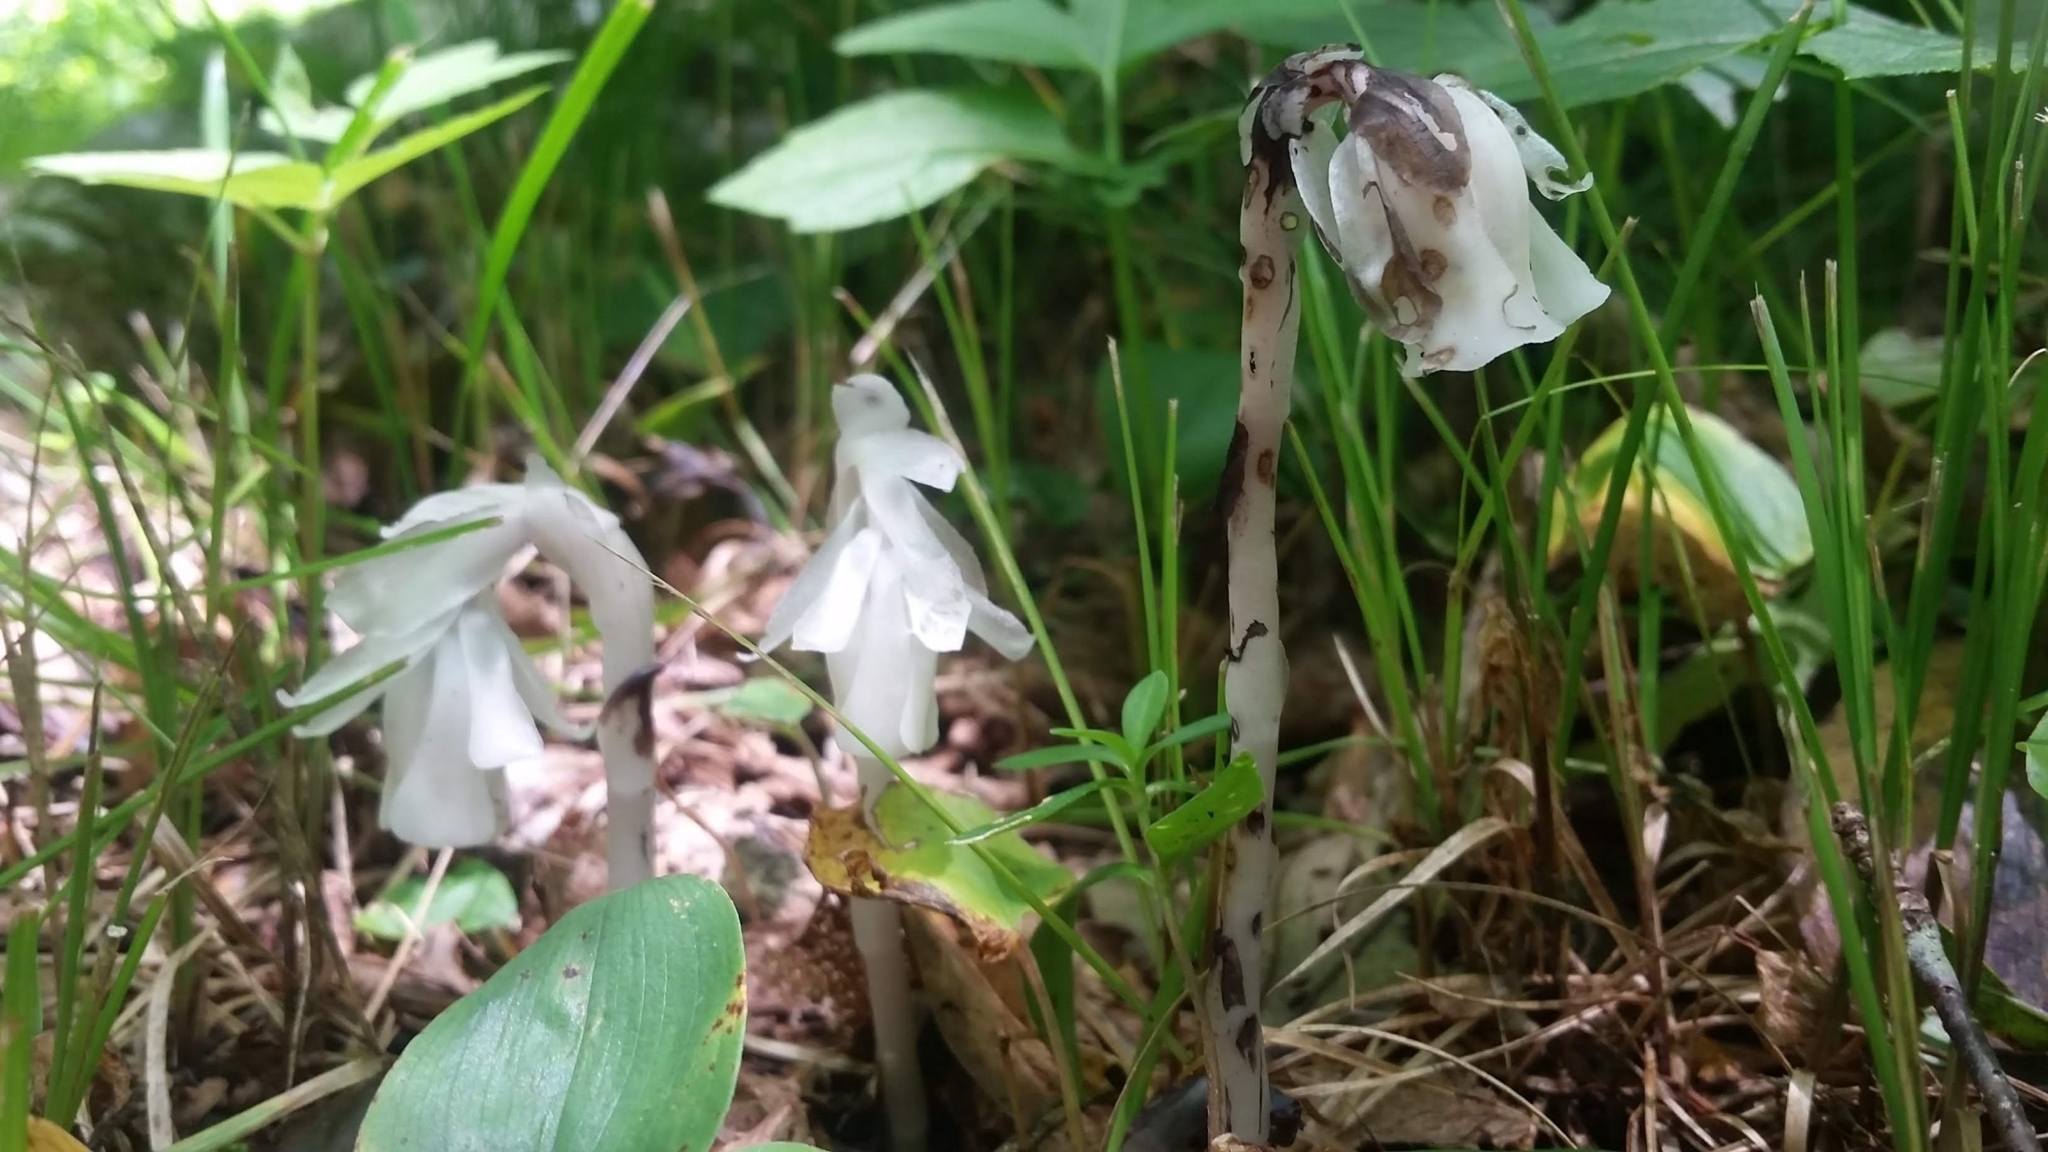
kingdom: Plantae
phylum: Tracheophyta
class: Magnoliopsida
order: Ericales
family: Ericaceae
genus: Monotropa
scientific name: Monotropa uniflora
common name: Convulsion root
